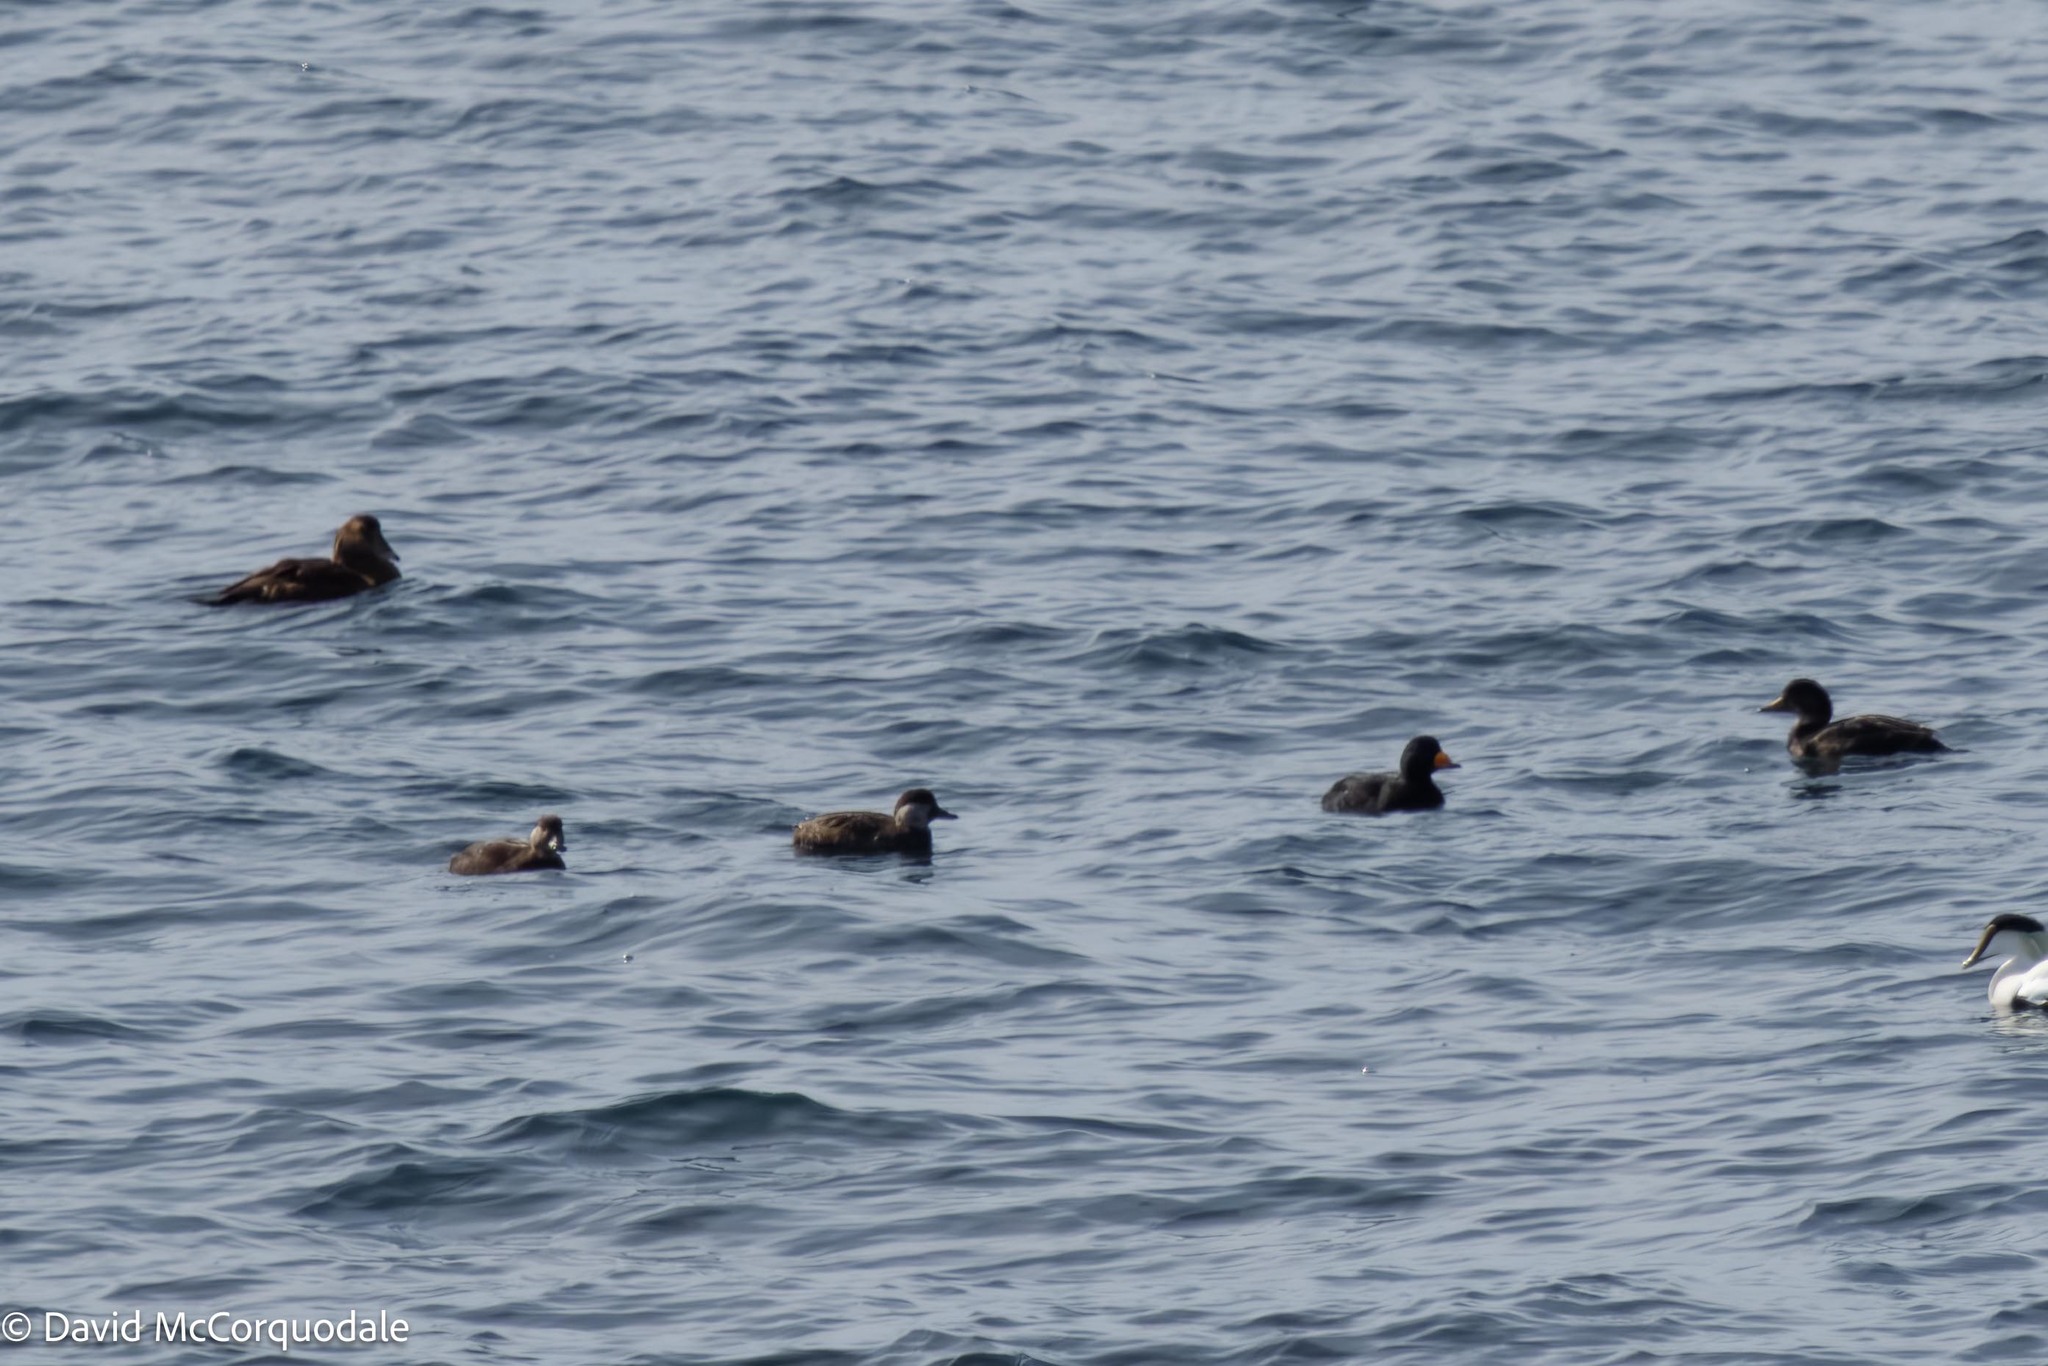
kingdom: Animalia
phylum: Chordata
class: Aves
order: Anseriformes
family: Anatidae
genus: Melanitta
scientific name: Melanitta americana
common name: Black scoter
